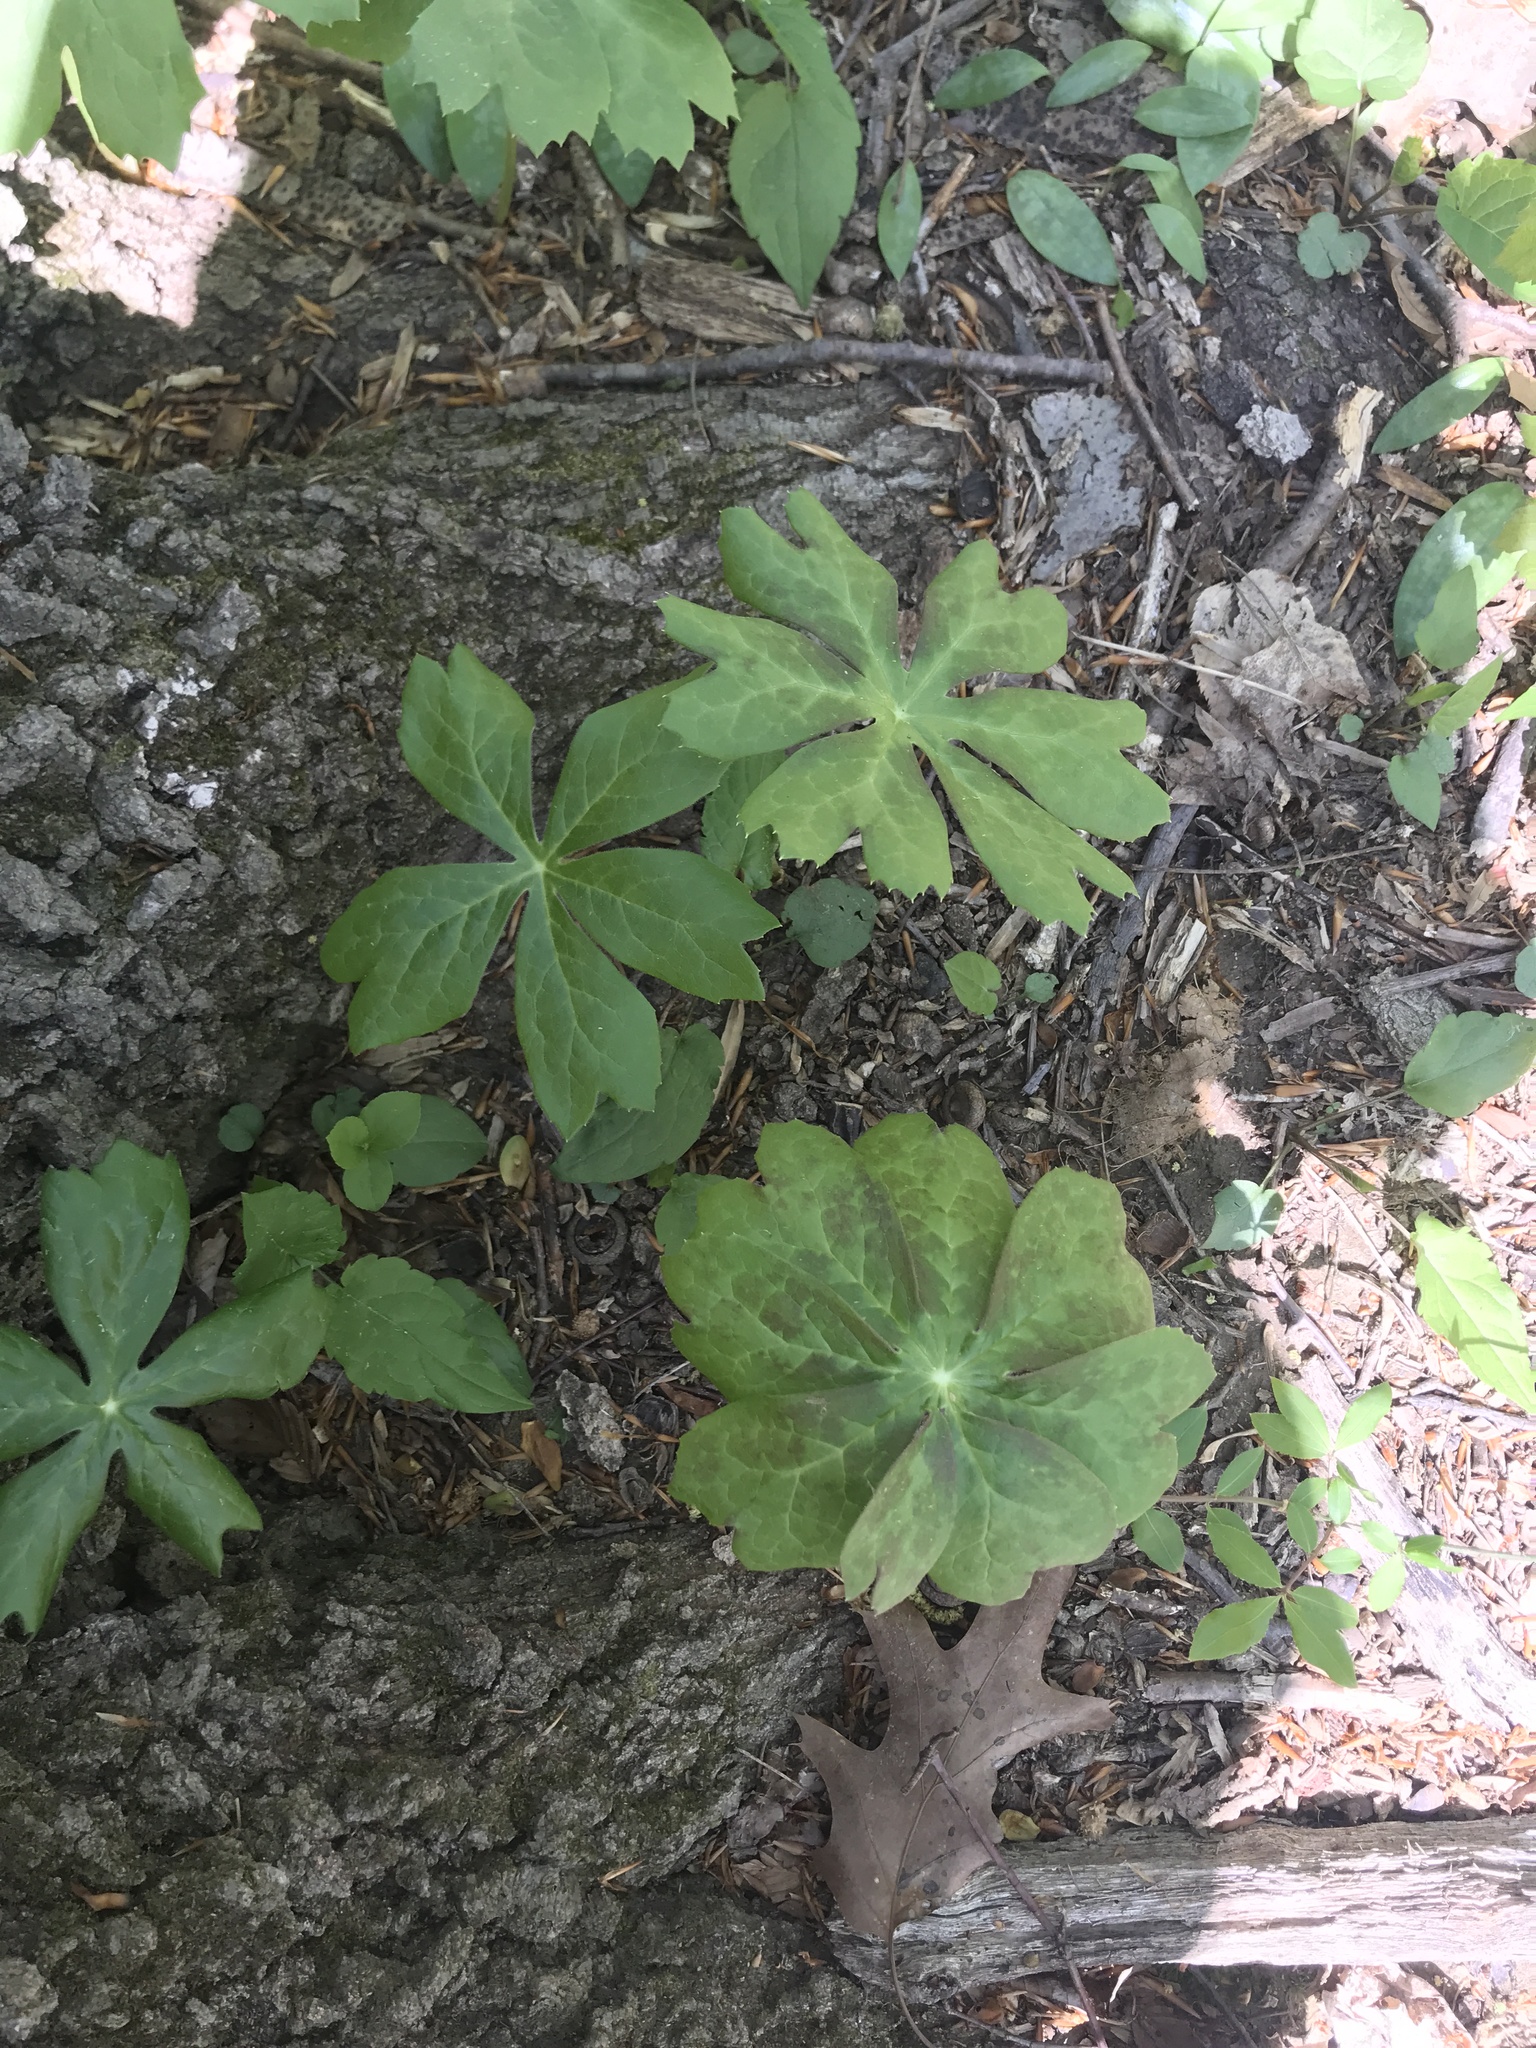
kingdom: Plantae
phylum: Tracheophyta
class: Magnoliopsida
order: Ranunculales
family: Berberidaceae
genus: Podophyllum
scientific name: Podophyllum peltatum
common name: Wild mandrake
